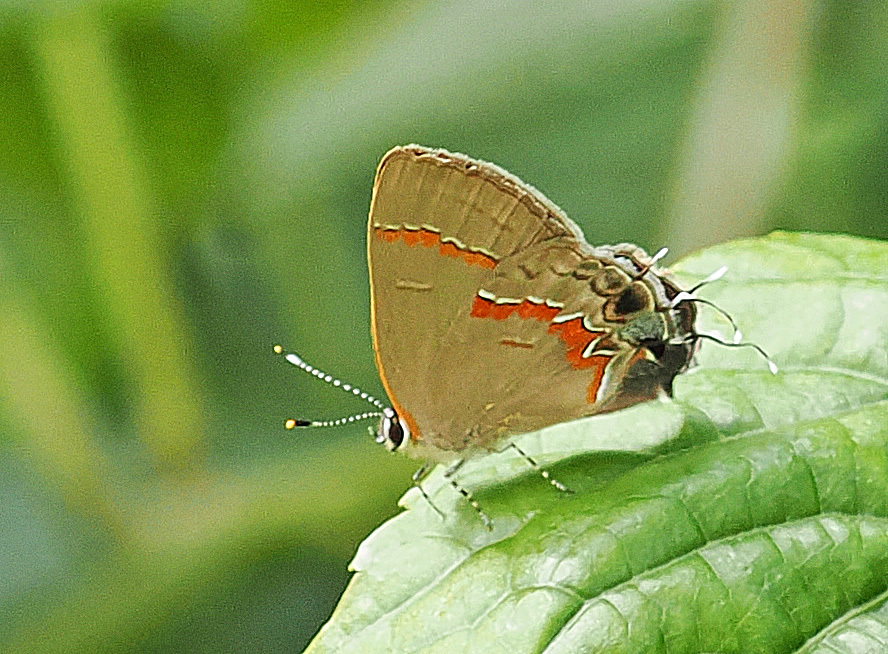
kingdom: Animalia
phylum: Arthropoda
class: Insecta
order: Lepidoptera
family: Lycaenidae
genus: Calycopis
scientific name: Calycopis cecrops
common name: Red-banded hairstreak
